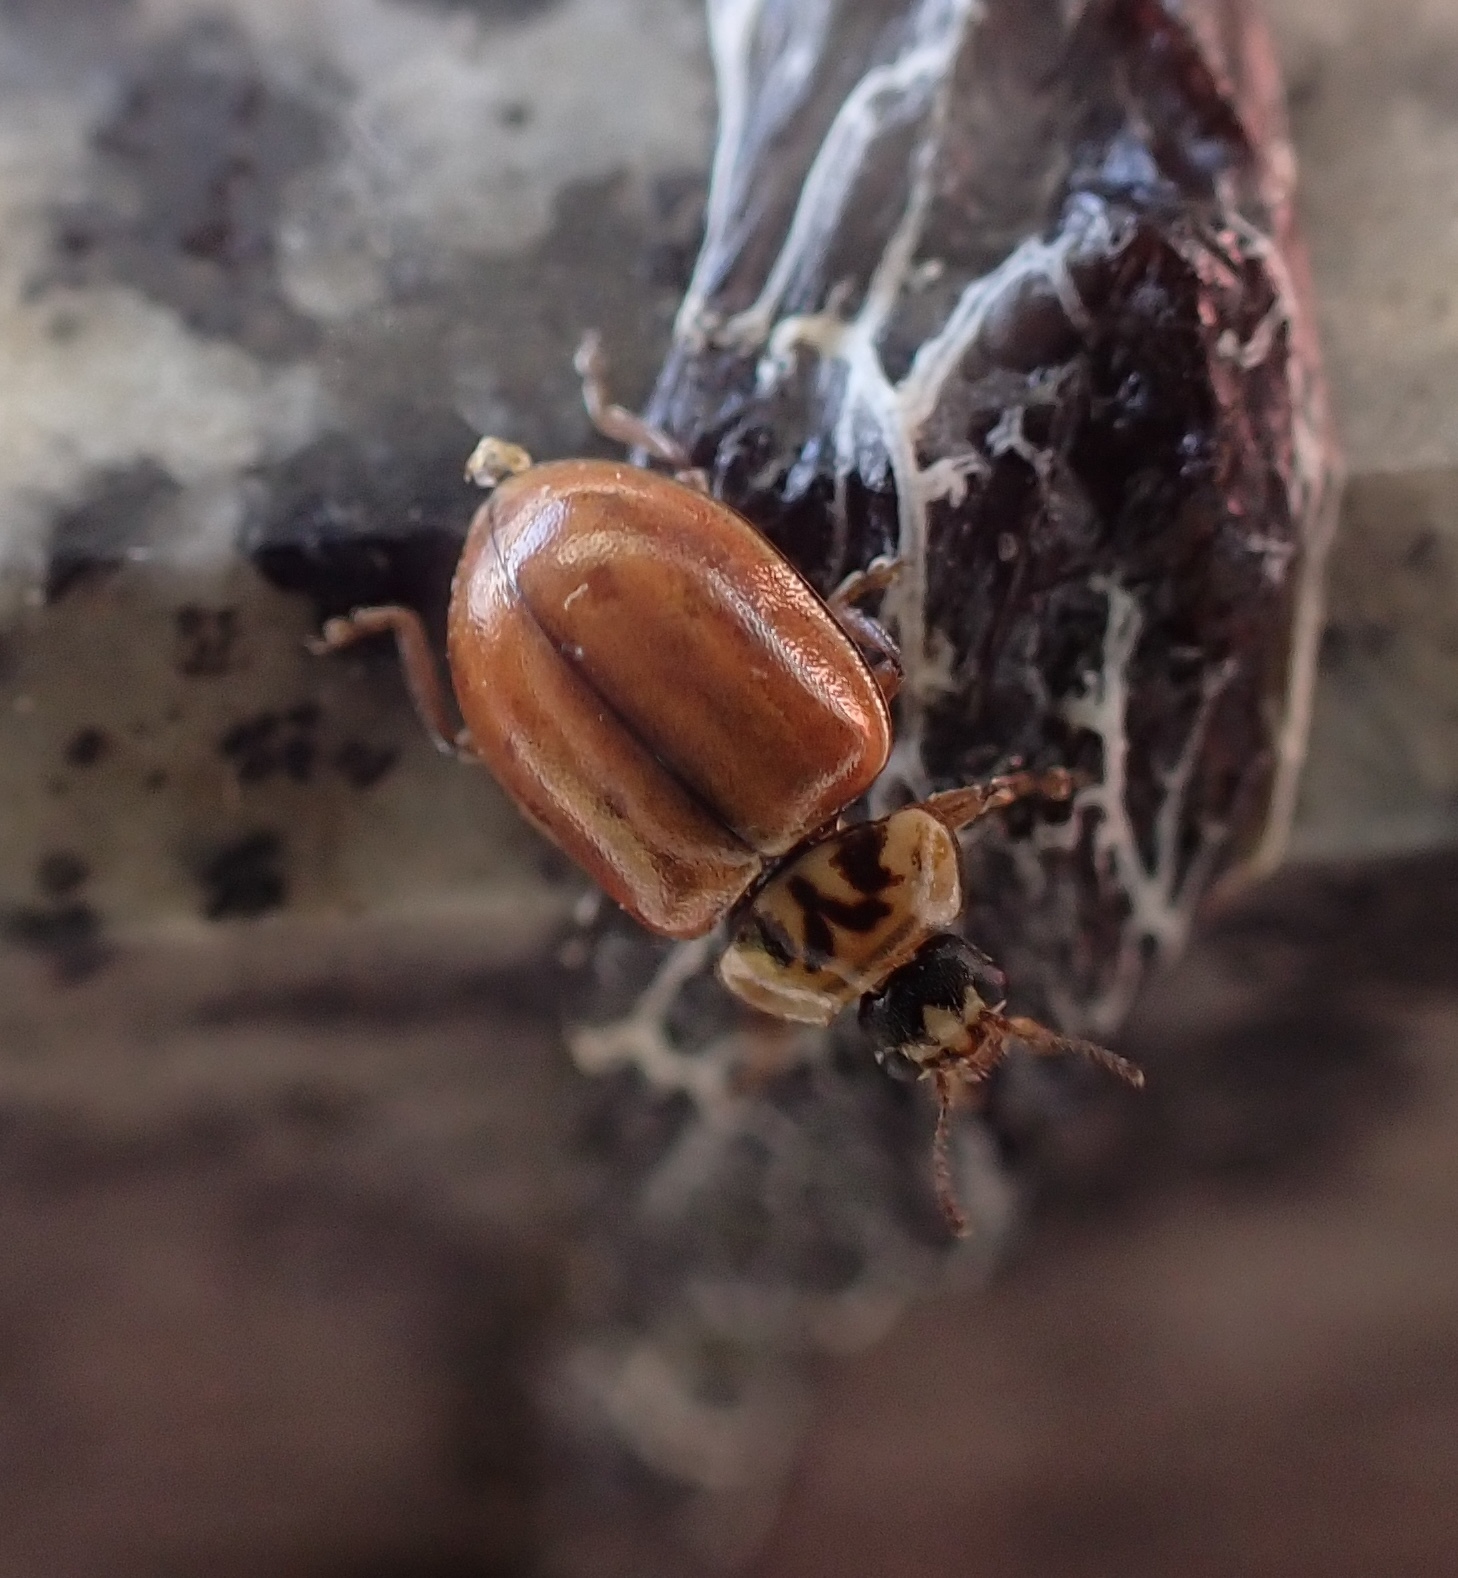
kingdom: Animalia
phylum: Arthropoda
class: Insecta
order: Coleoptera
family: Coccinellidae
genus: Aphidecta
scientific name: Aphidecta obliterata
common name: Larch ladybird
